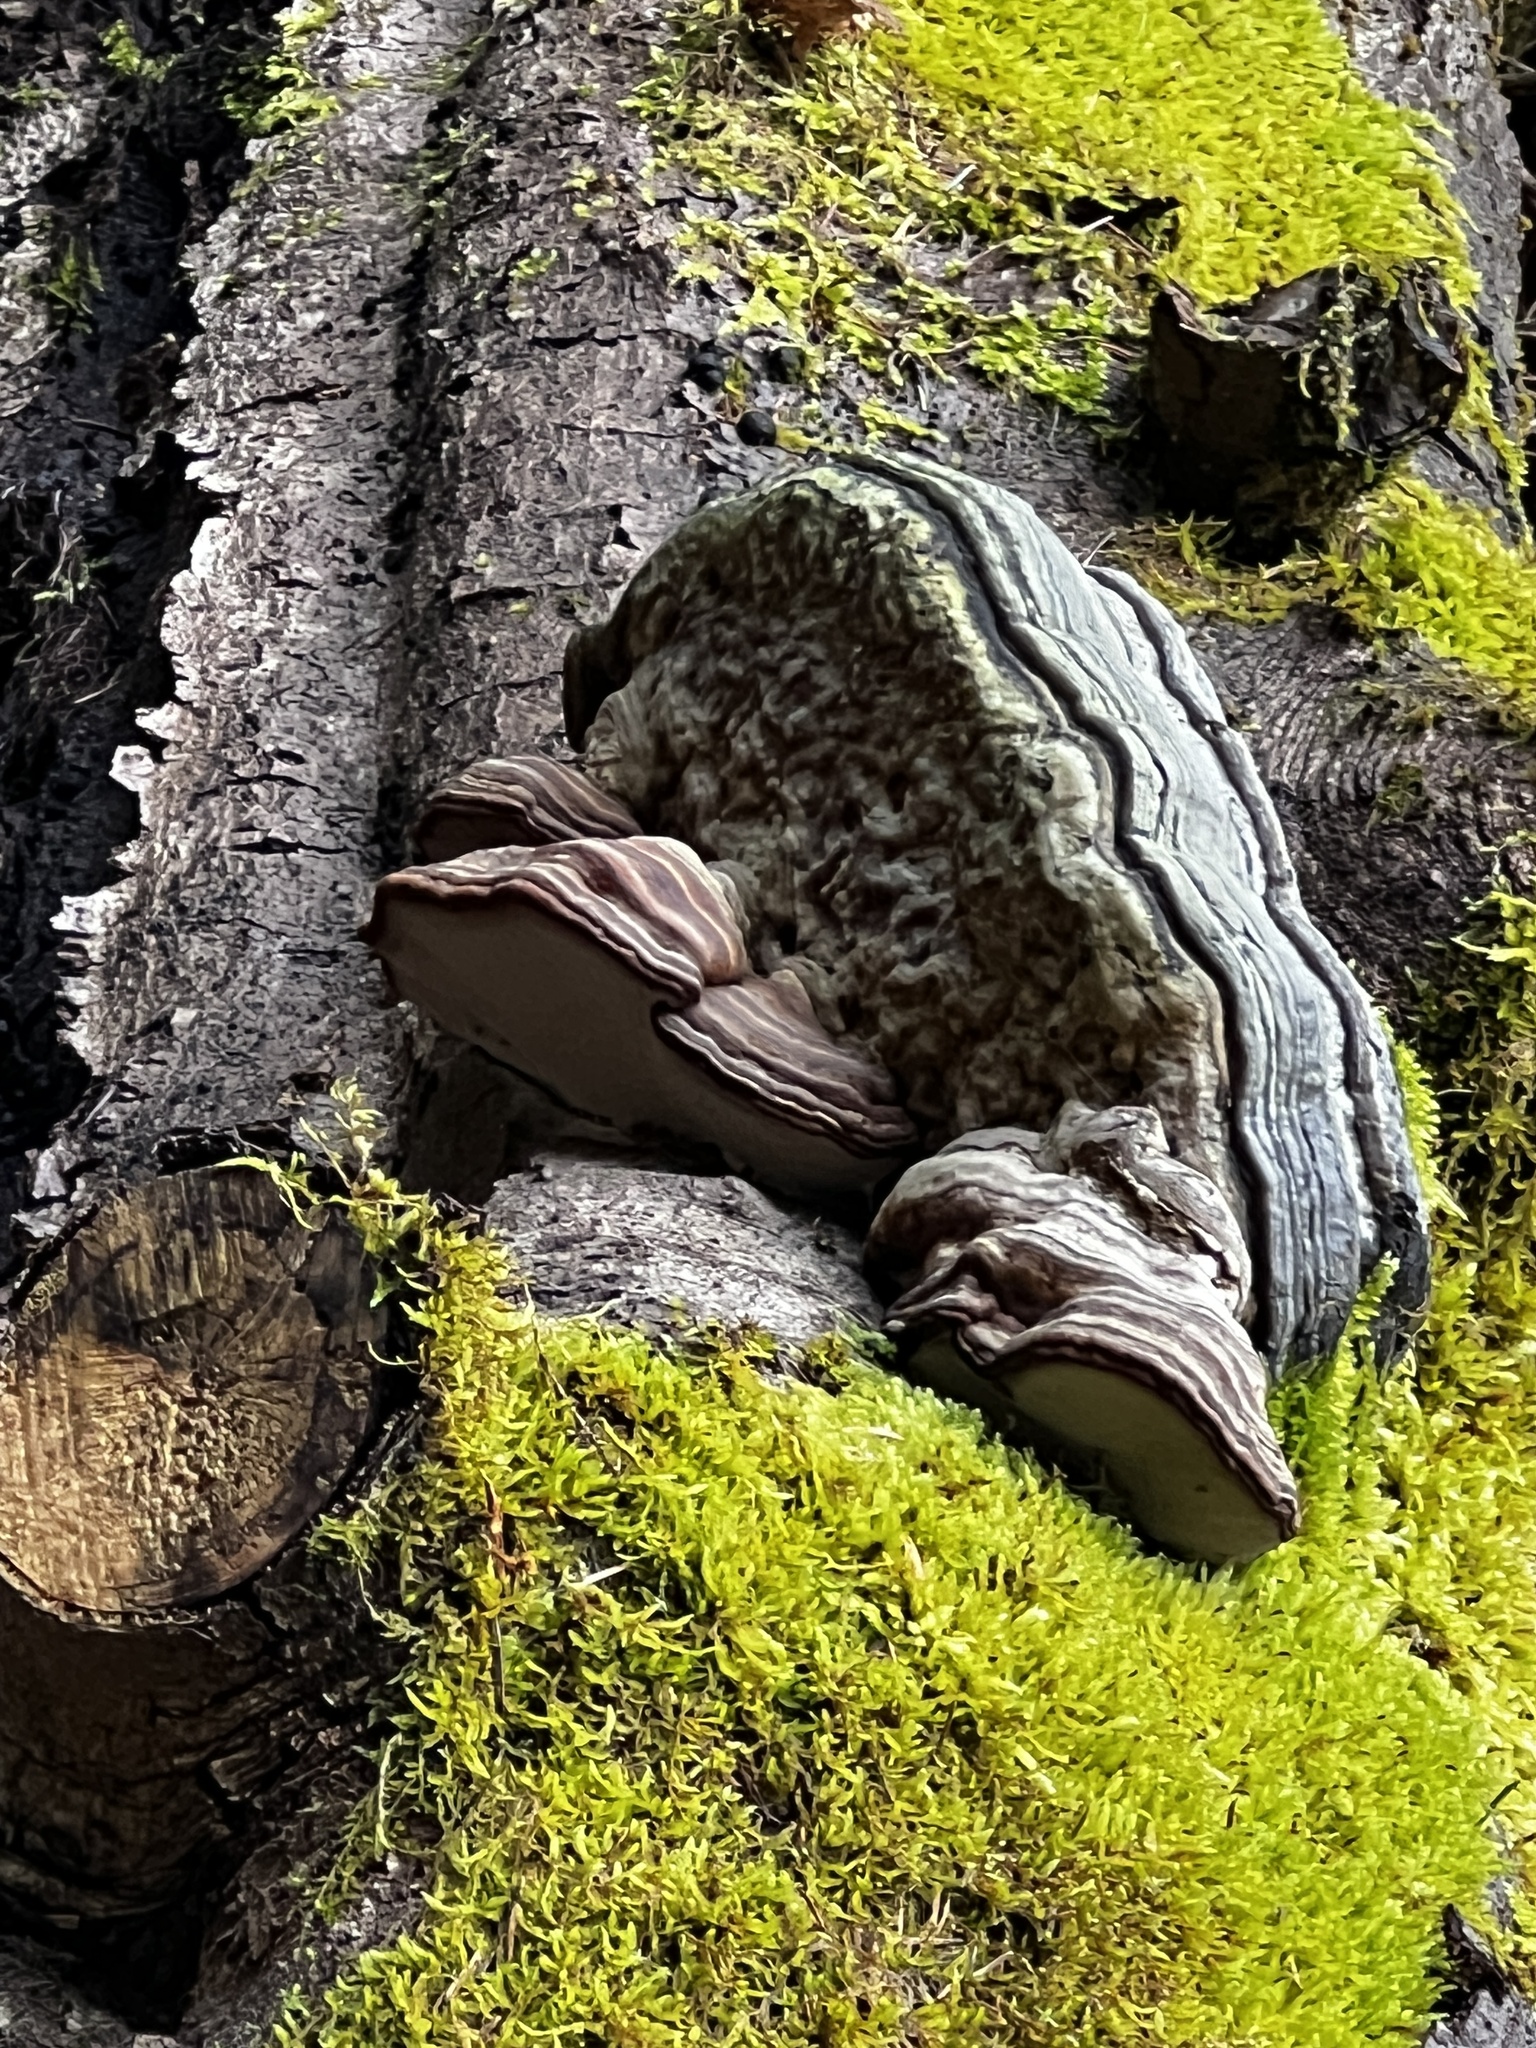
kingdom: Fungi
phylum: Basidiomycota
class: Agaricomycetes
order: Polyporales
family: Polyporaceae
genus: Fomes
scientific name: Fomes fomentarius
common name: Hoof fungus
